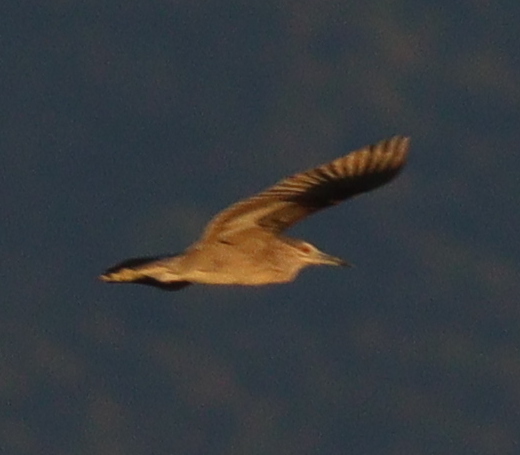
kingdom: Animalia
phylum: Chordata
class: Aves
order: Pelecaniformes
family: Ardeidae
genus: Nycticorax
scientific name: Nycticorax nycticorax
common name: Black-crowned night heron
